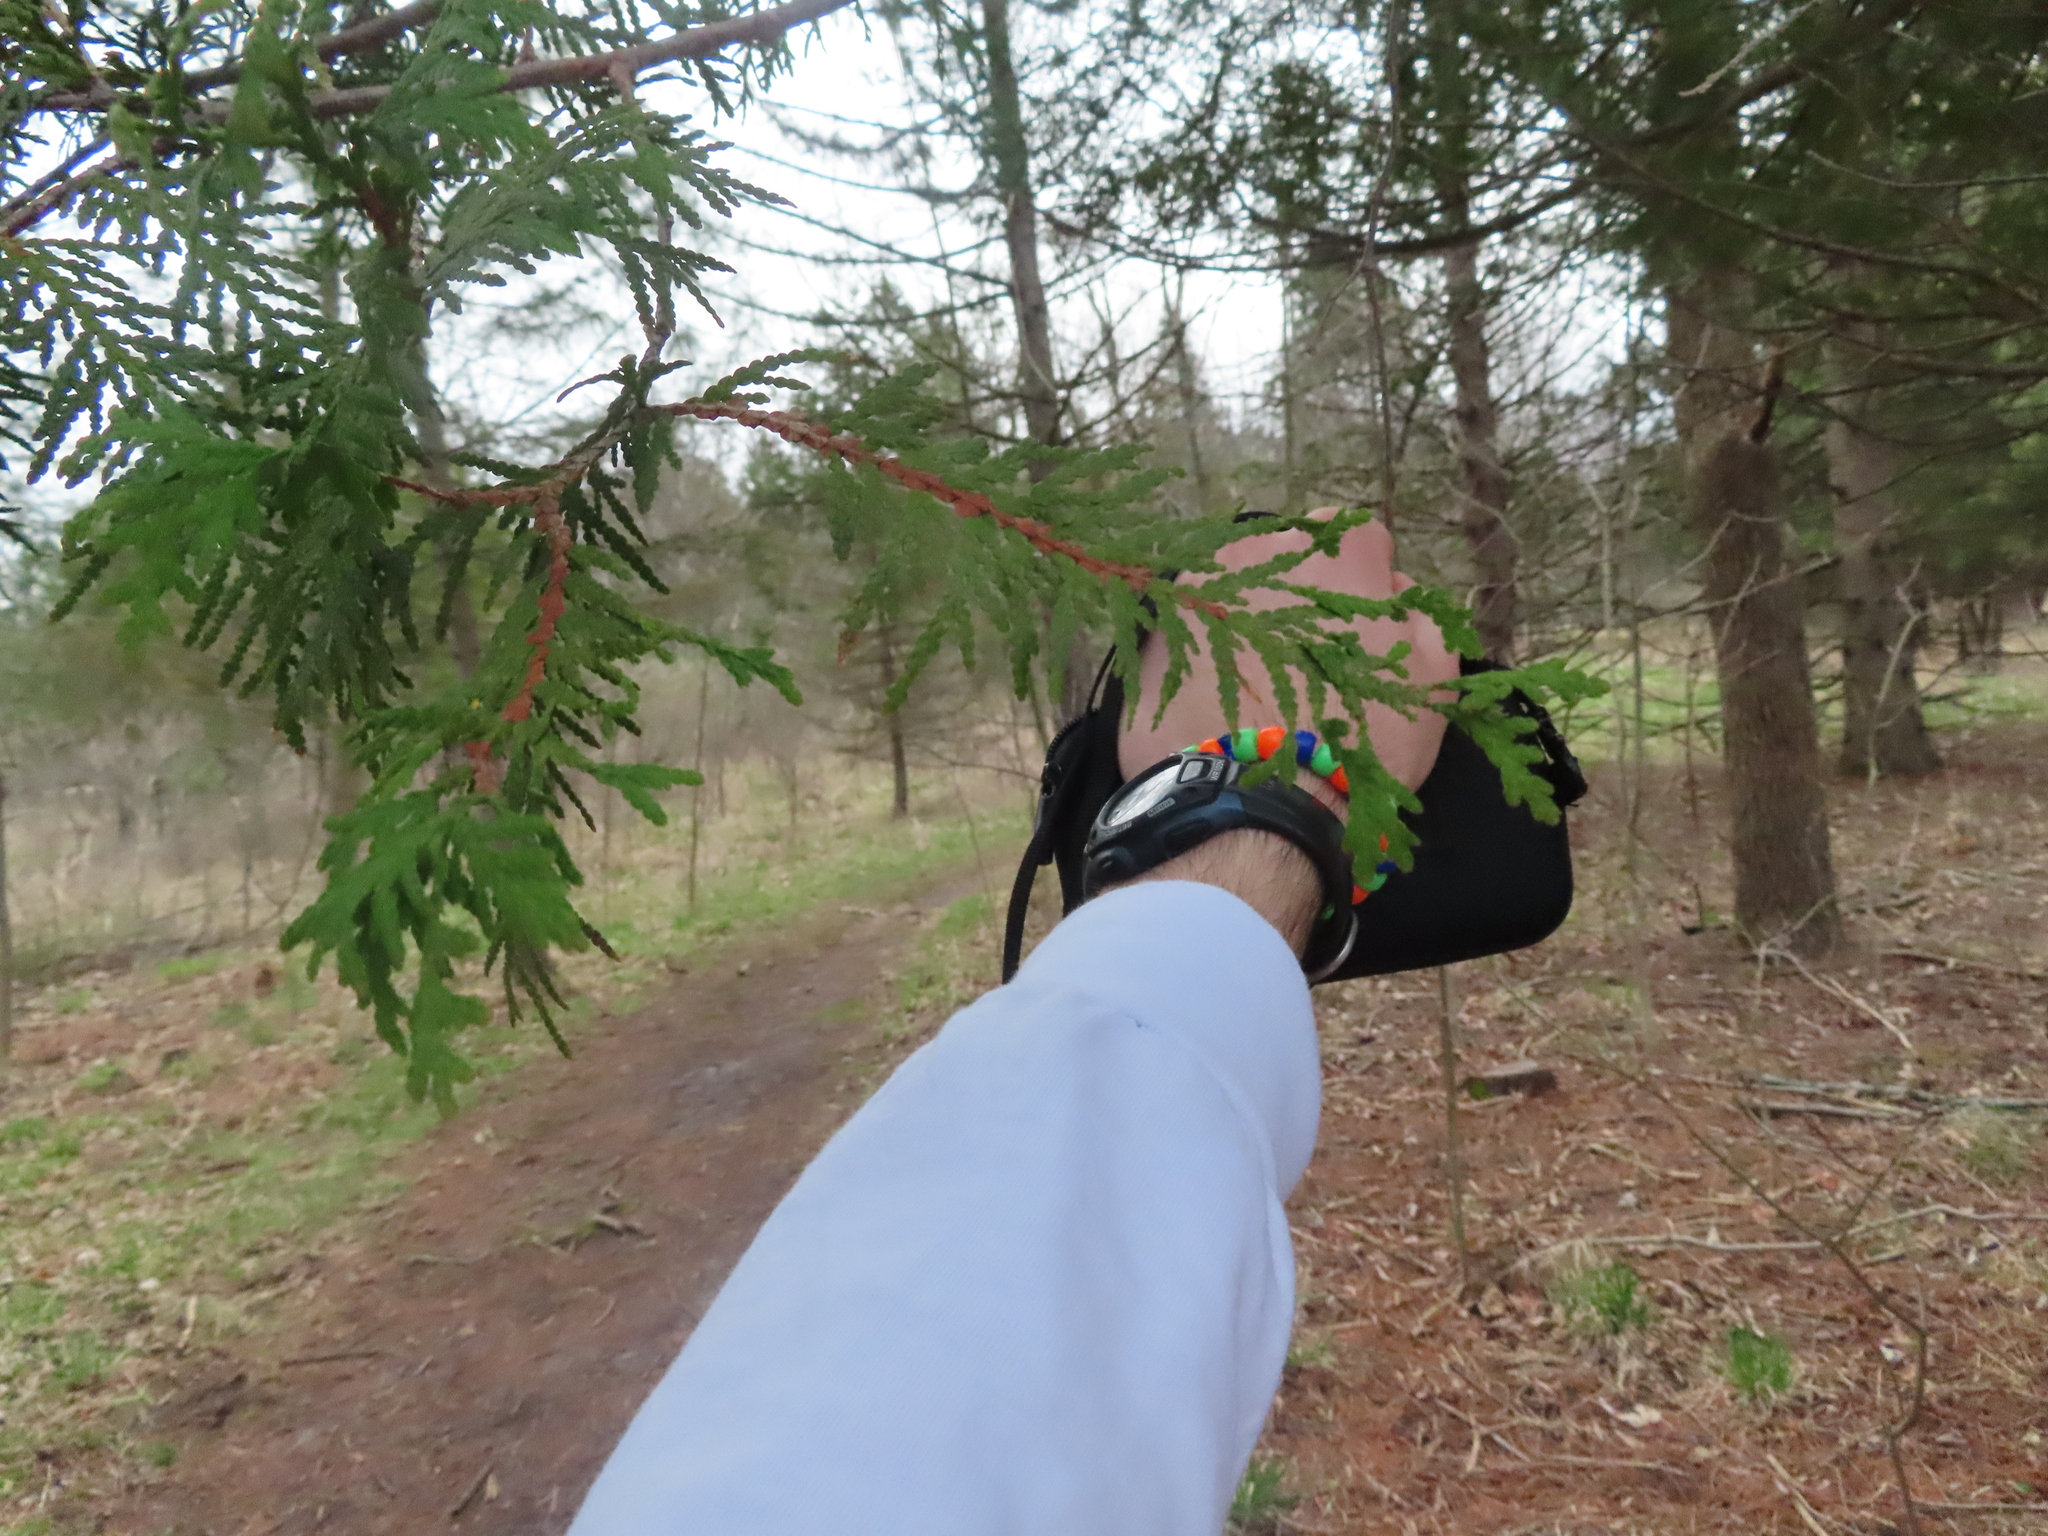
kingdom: Plantae
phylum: Tracheophyta
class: Pinopsida
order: Pinales
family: Cupressaceae
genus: Thuja
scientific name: Thuja occidentalis
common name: Northern white-cedar
